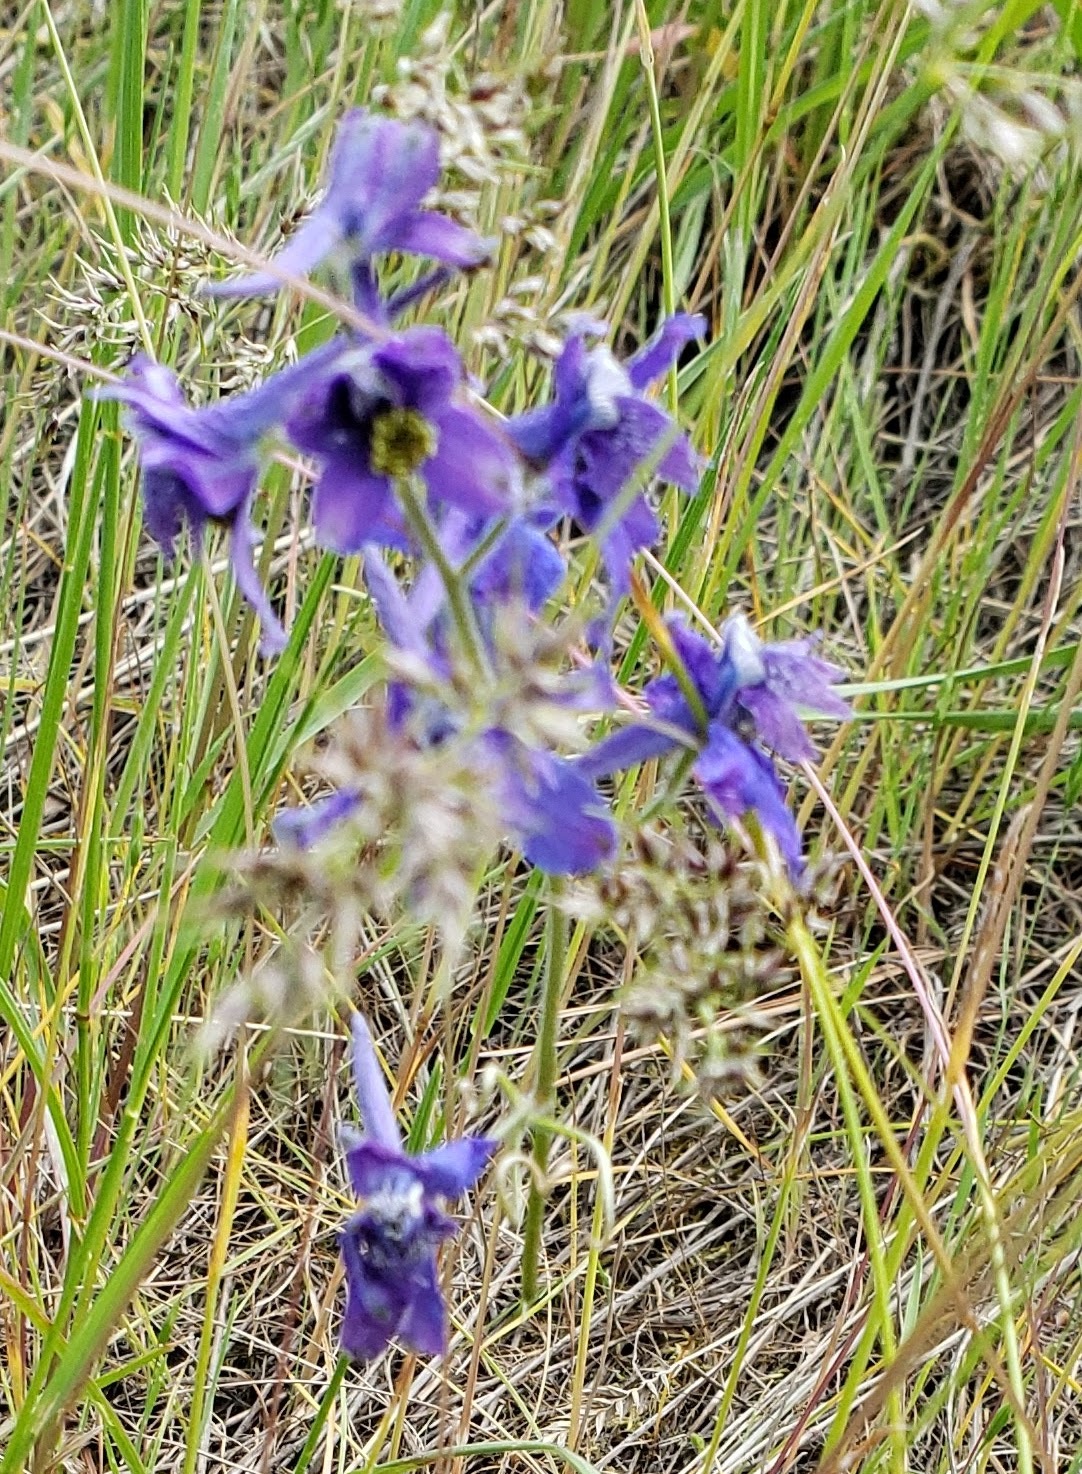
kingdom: Plantae
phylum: Tracheophyta
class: Magnoliopsida
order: Ranunculales
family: Ranunculaceae
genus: Delphinium
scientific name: Delphinium nuttallianum
